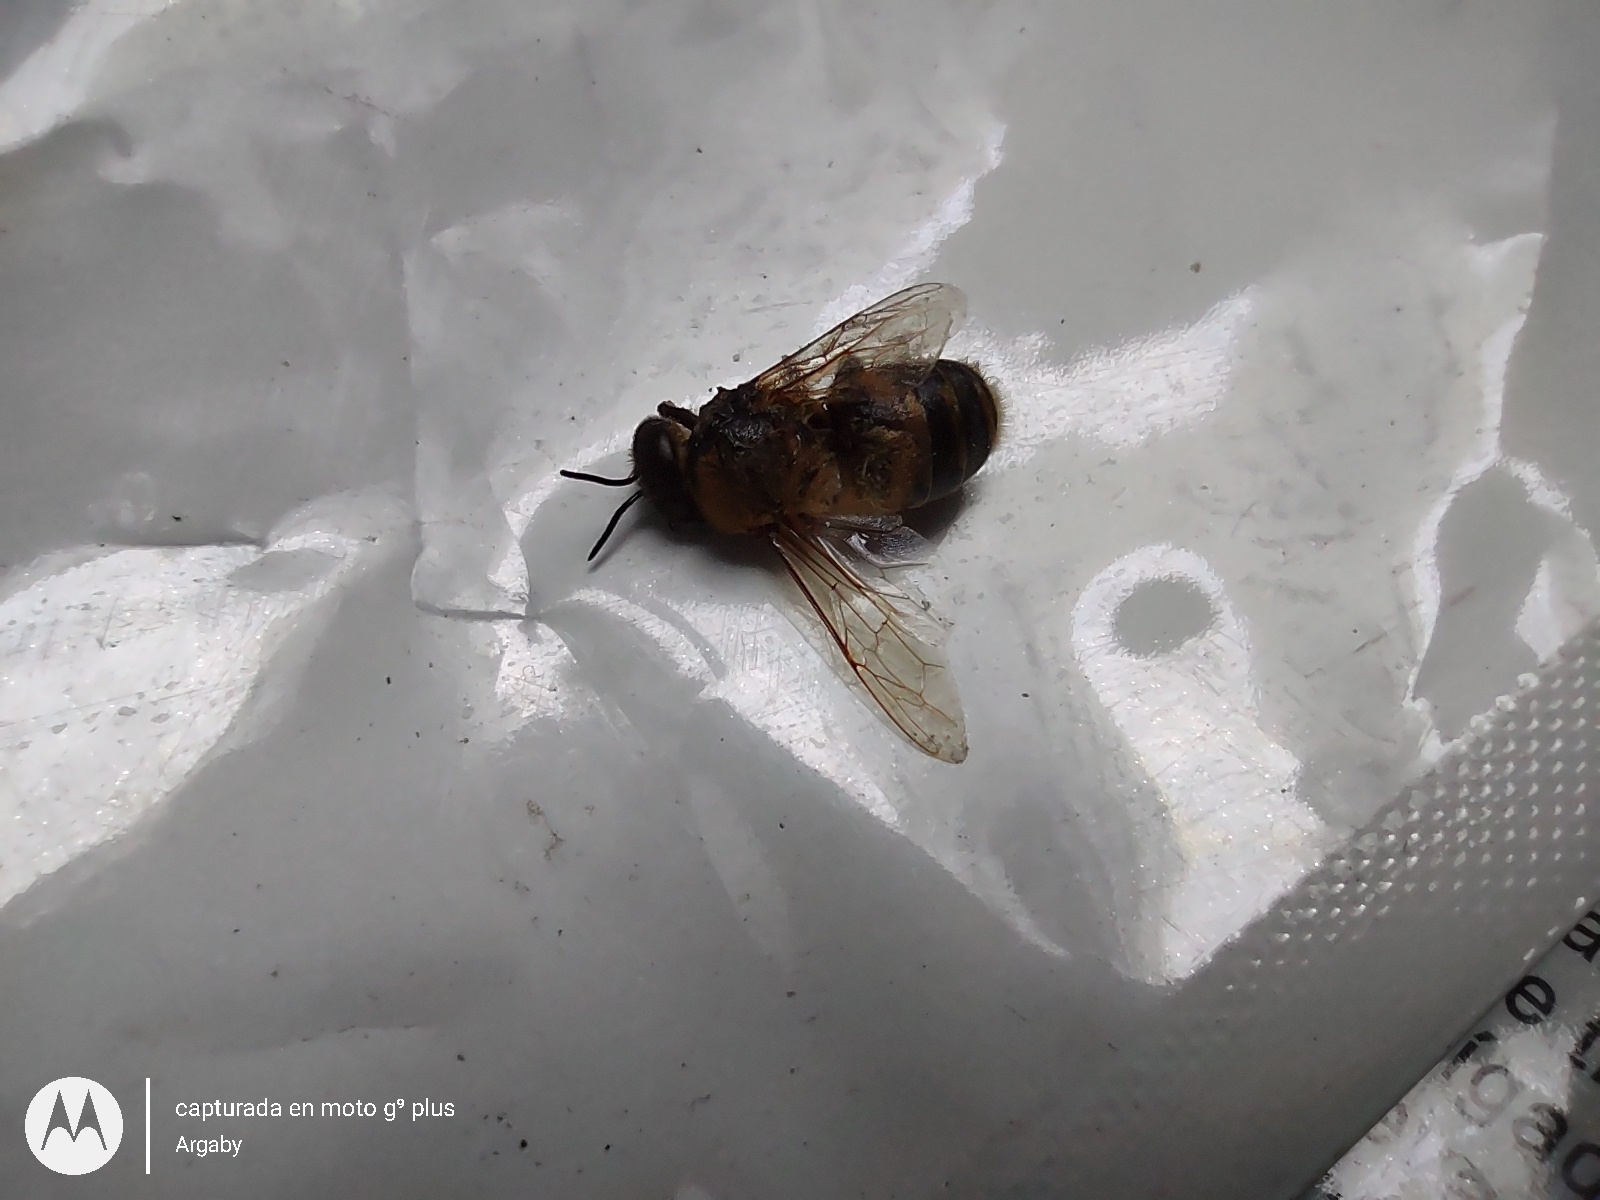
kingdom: Animalia
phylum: Arthropoda
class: Insecta
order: Hymenoptera
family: Apidae
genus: Apis
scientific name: Apis mellifera
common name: Honey bee
